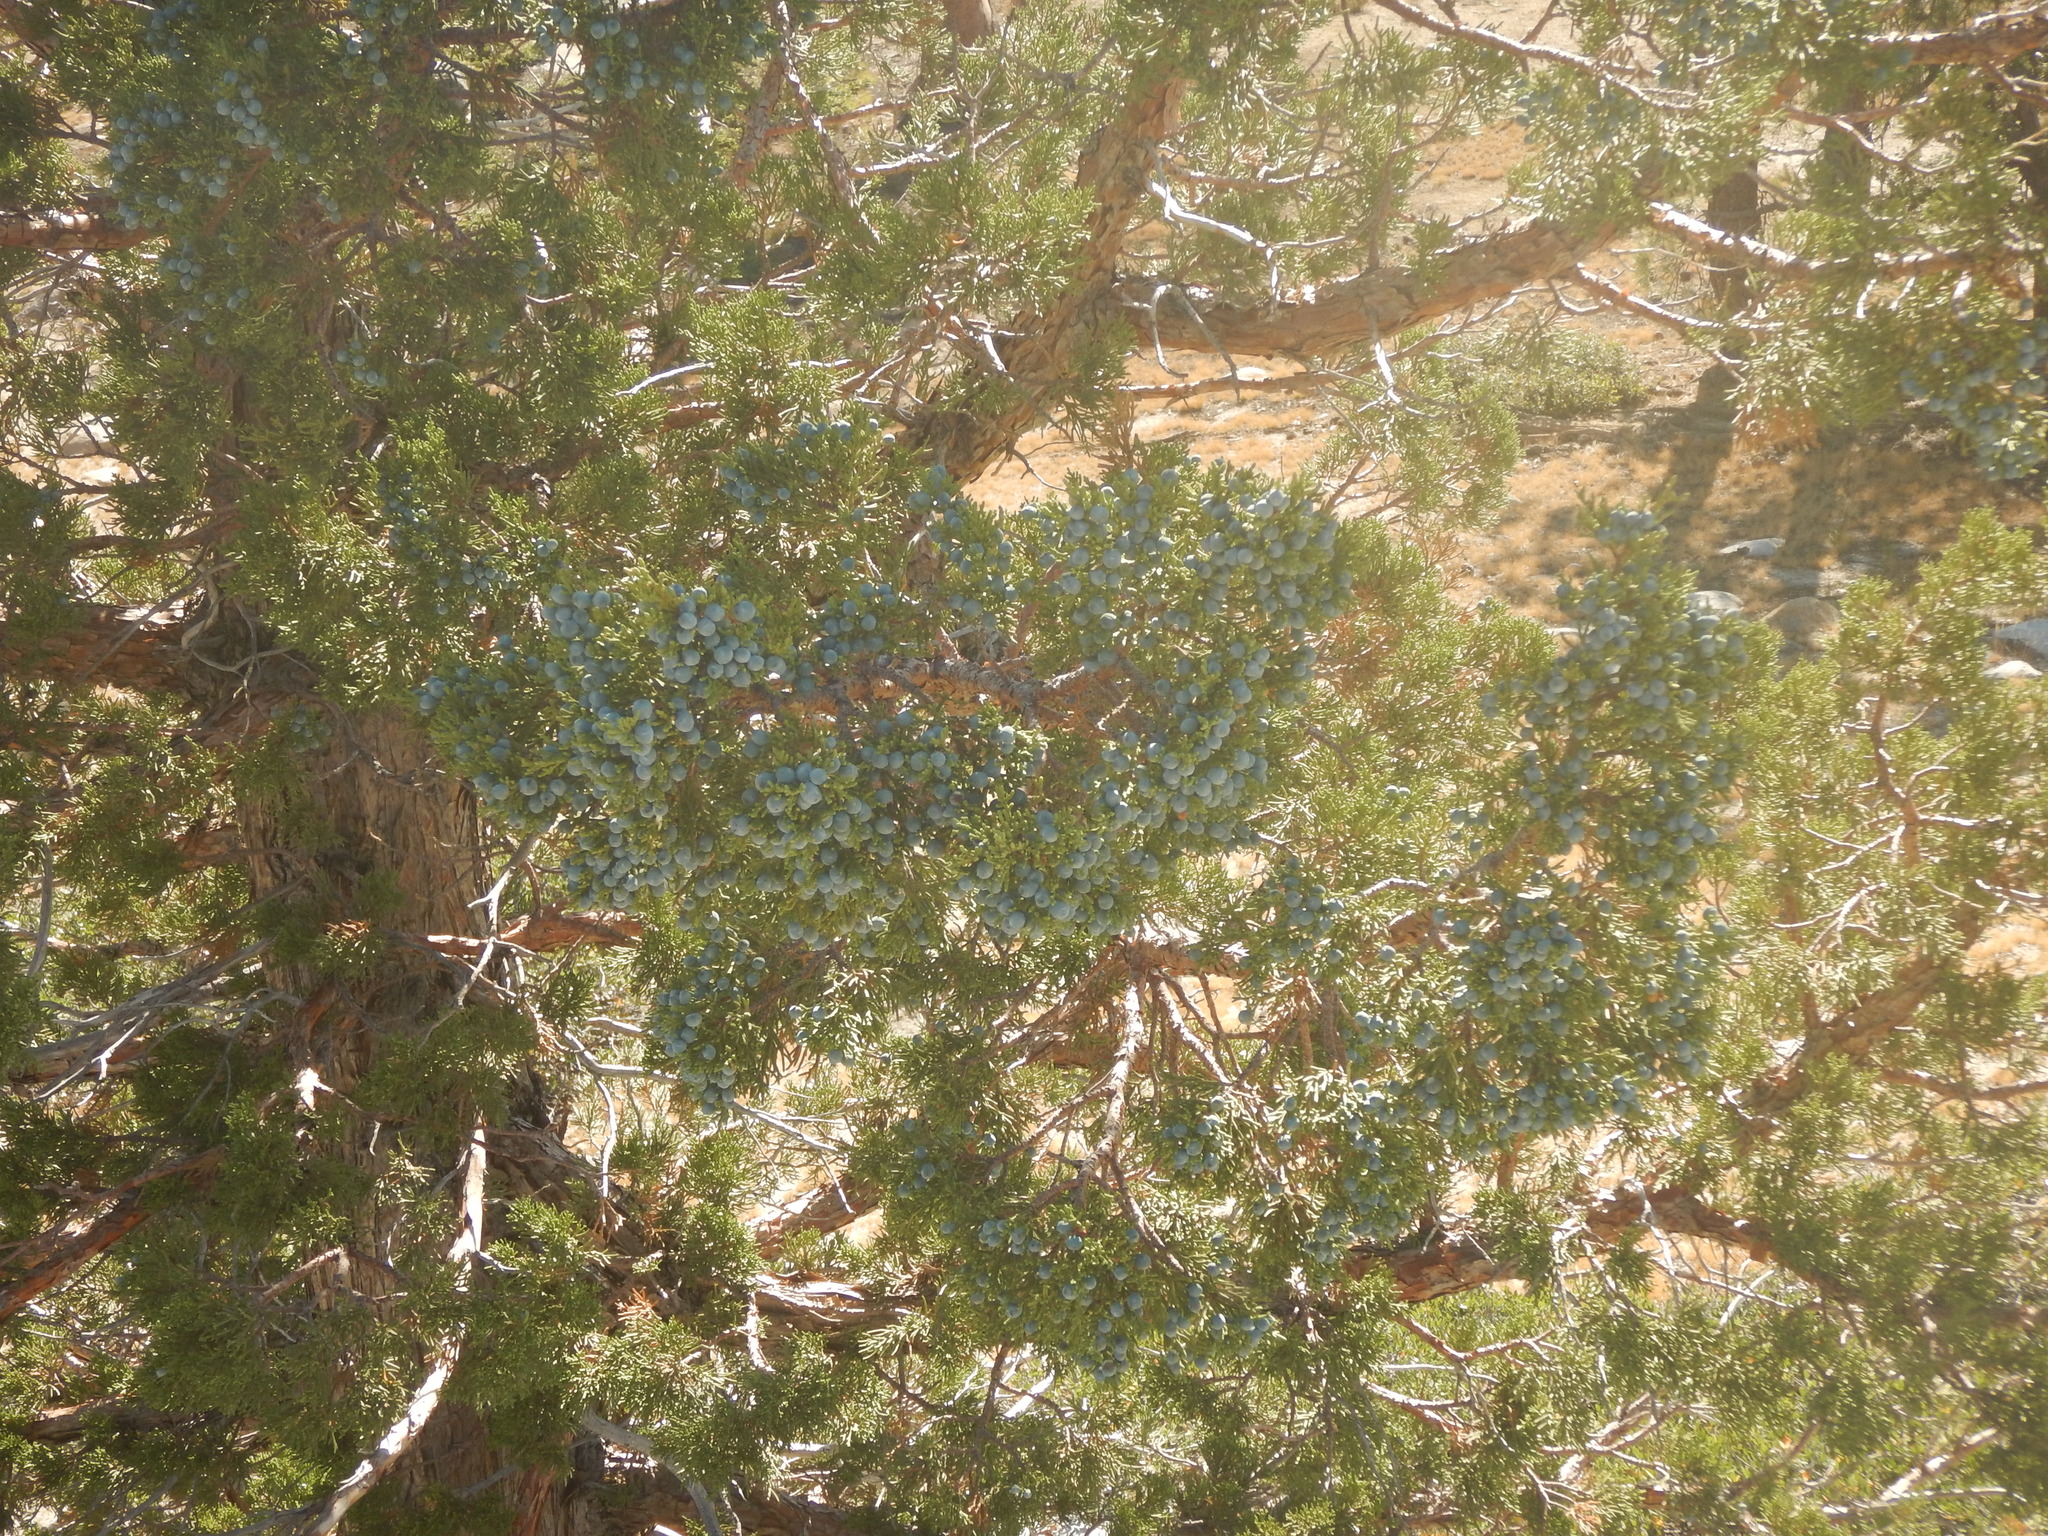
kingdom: Plantae
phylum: Tracheophyta
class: Pinopsida
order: Pinales
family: Cupressaceae
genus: Juniperus
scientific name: Juniperus occidentalis
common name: Western juniper
